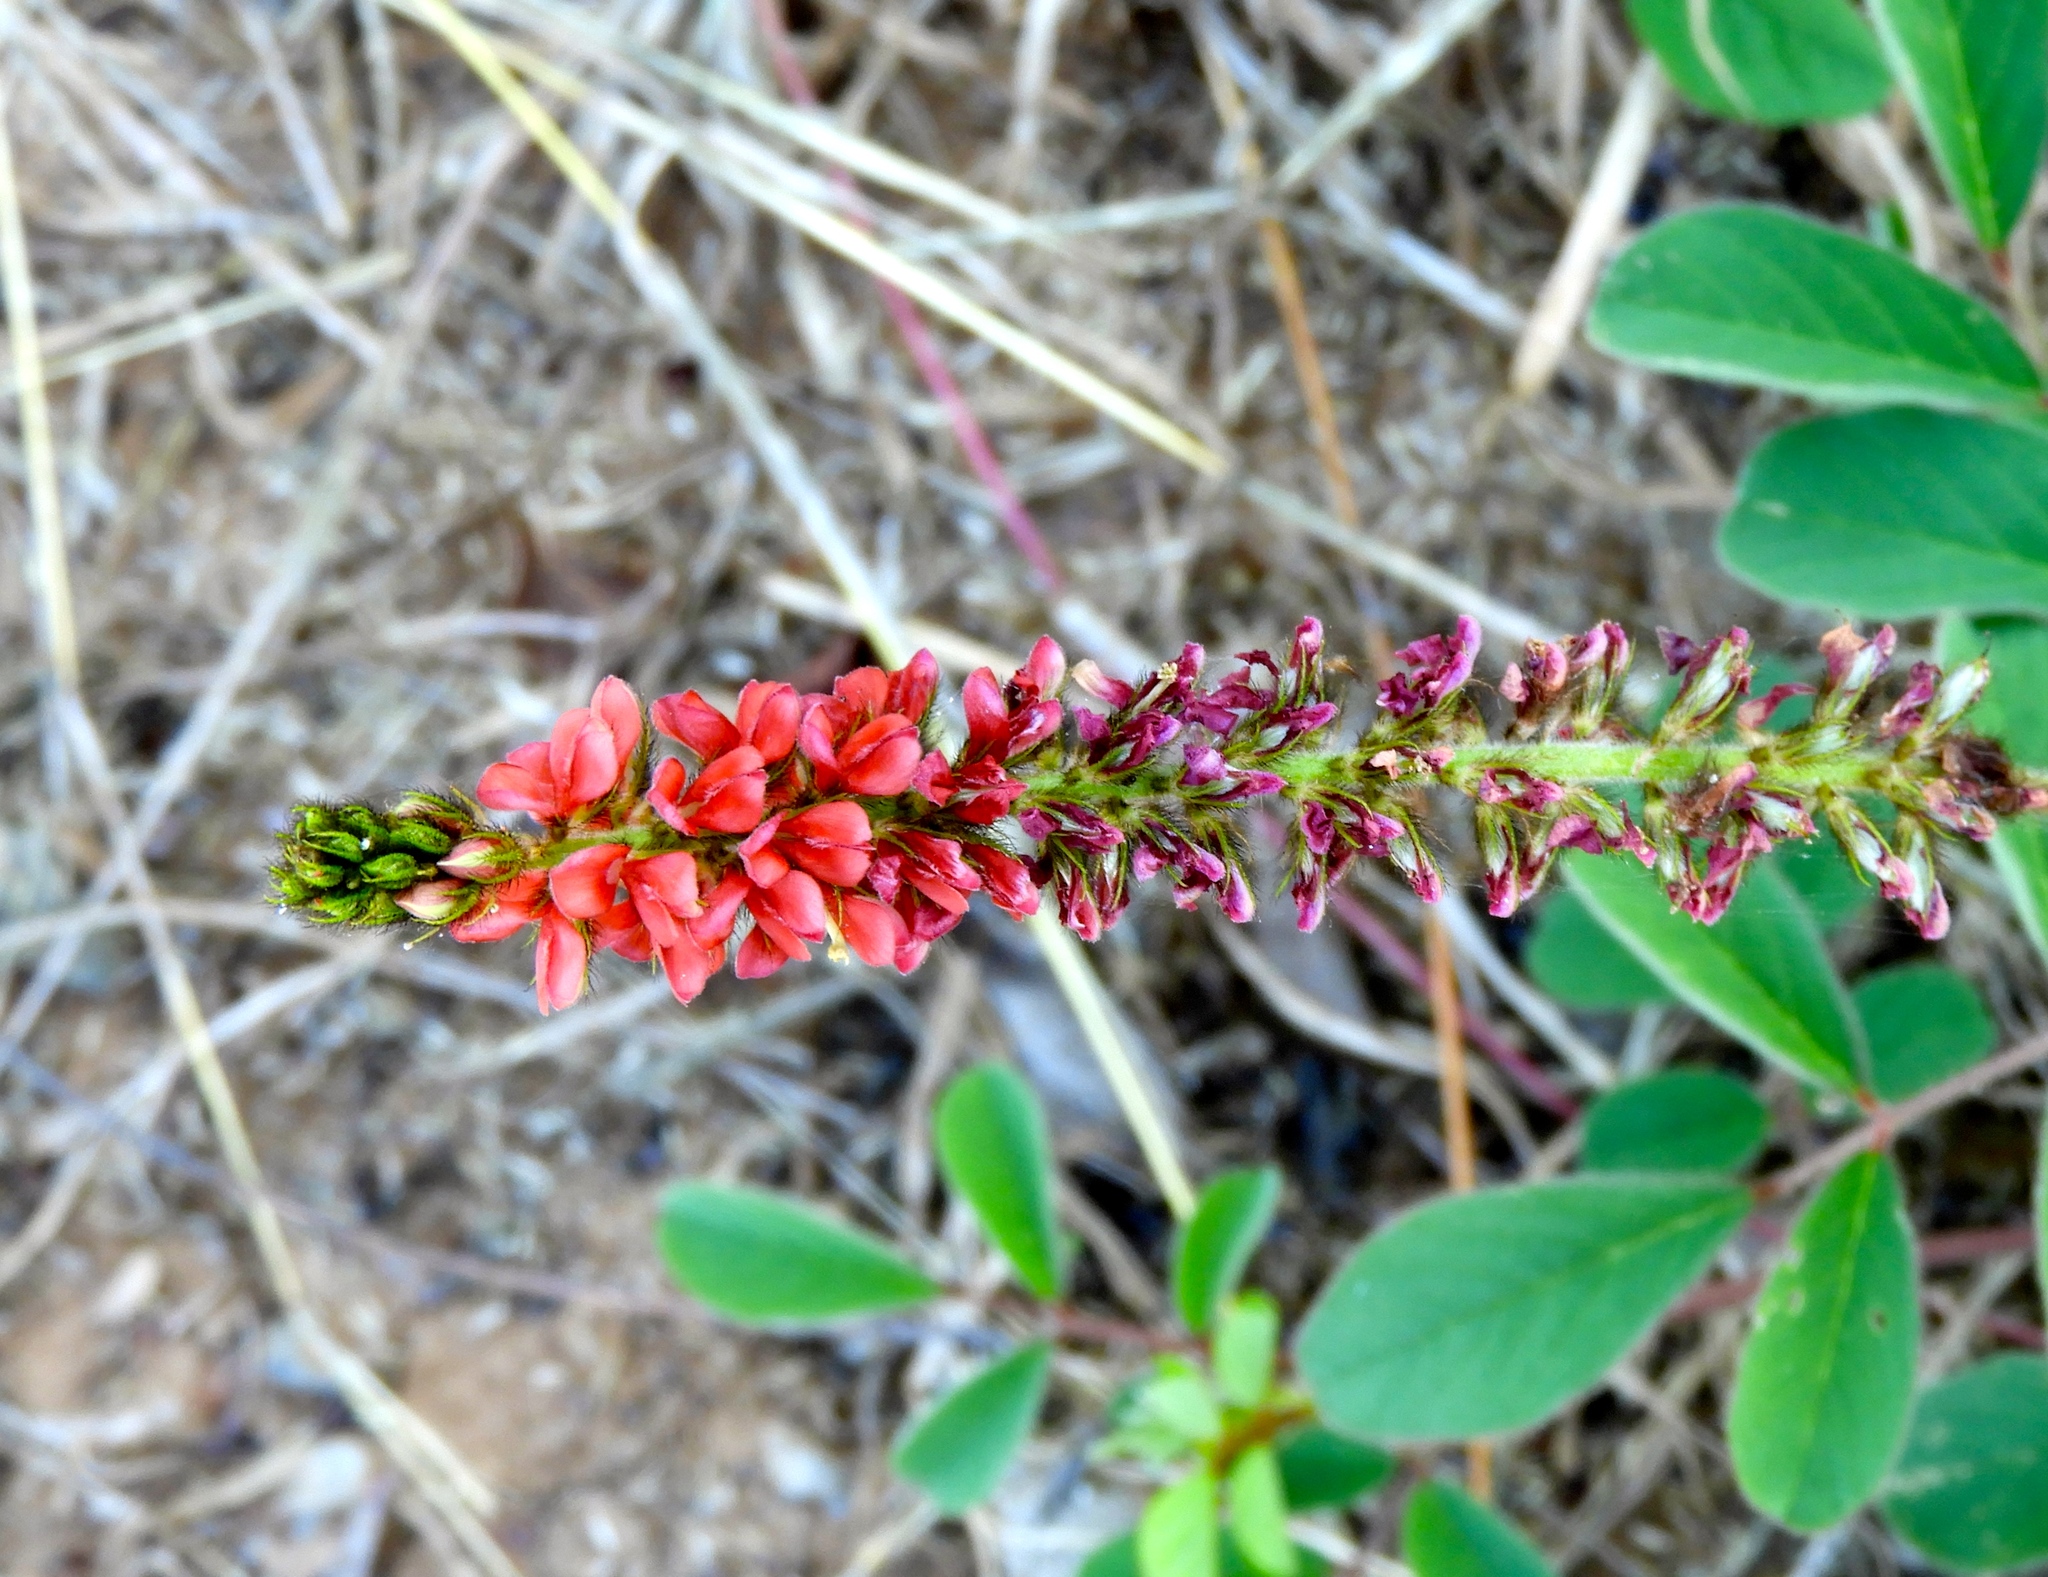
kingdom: Plantae
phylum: Tracheophyta
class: Magnoliopsida
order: Fabales
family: Fabaceae
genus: Indigofera
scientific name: Indigofera hirsuta
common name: Hairy indigo
